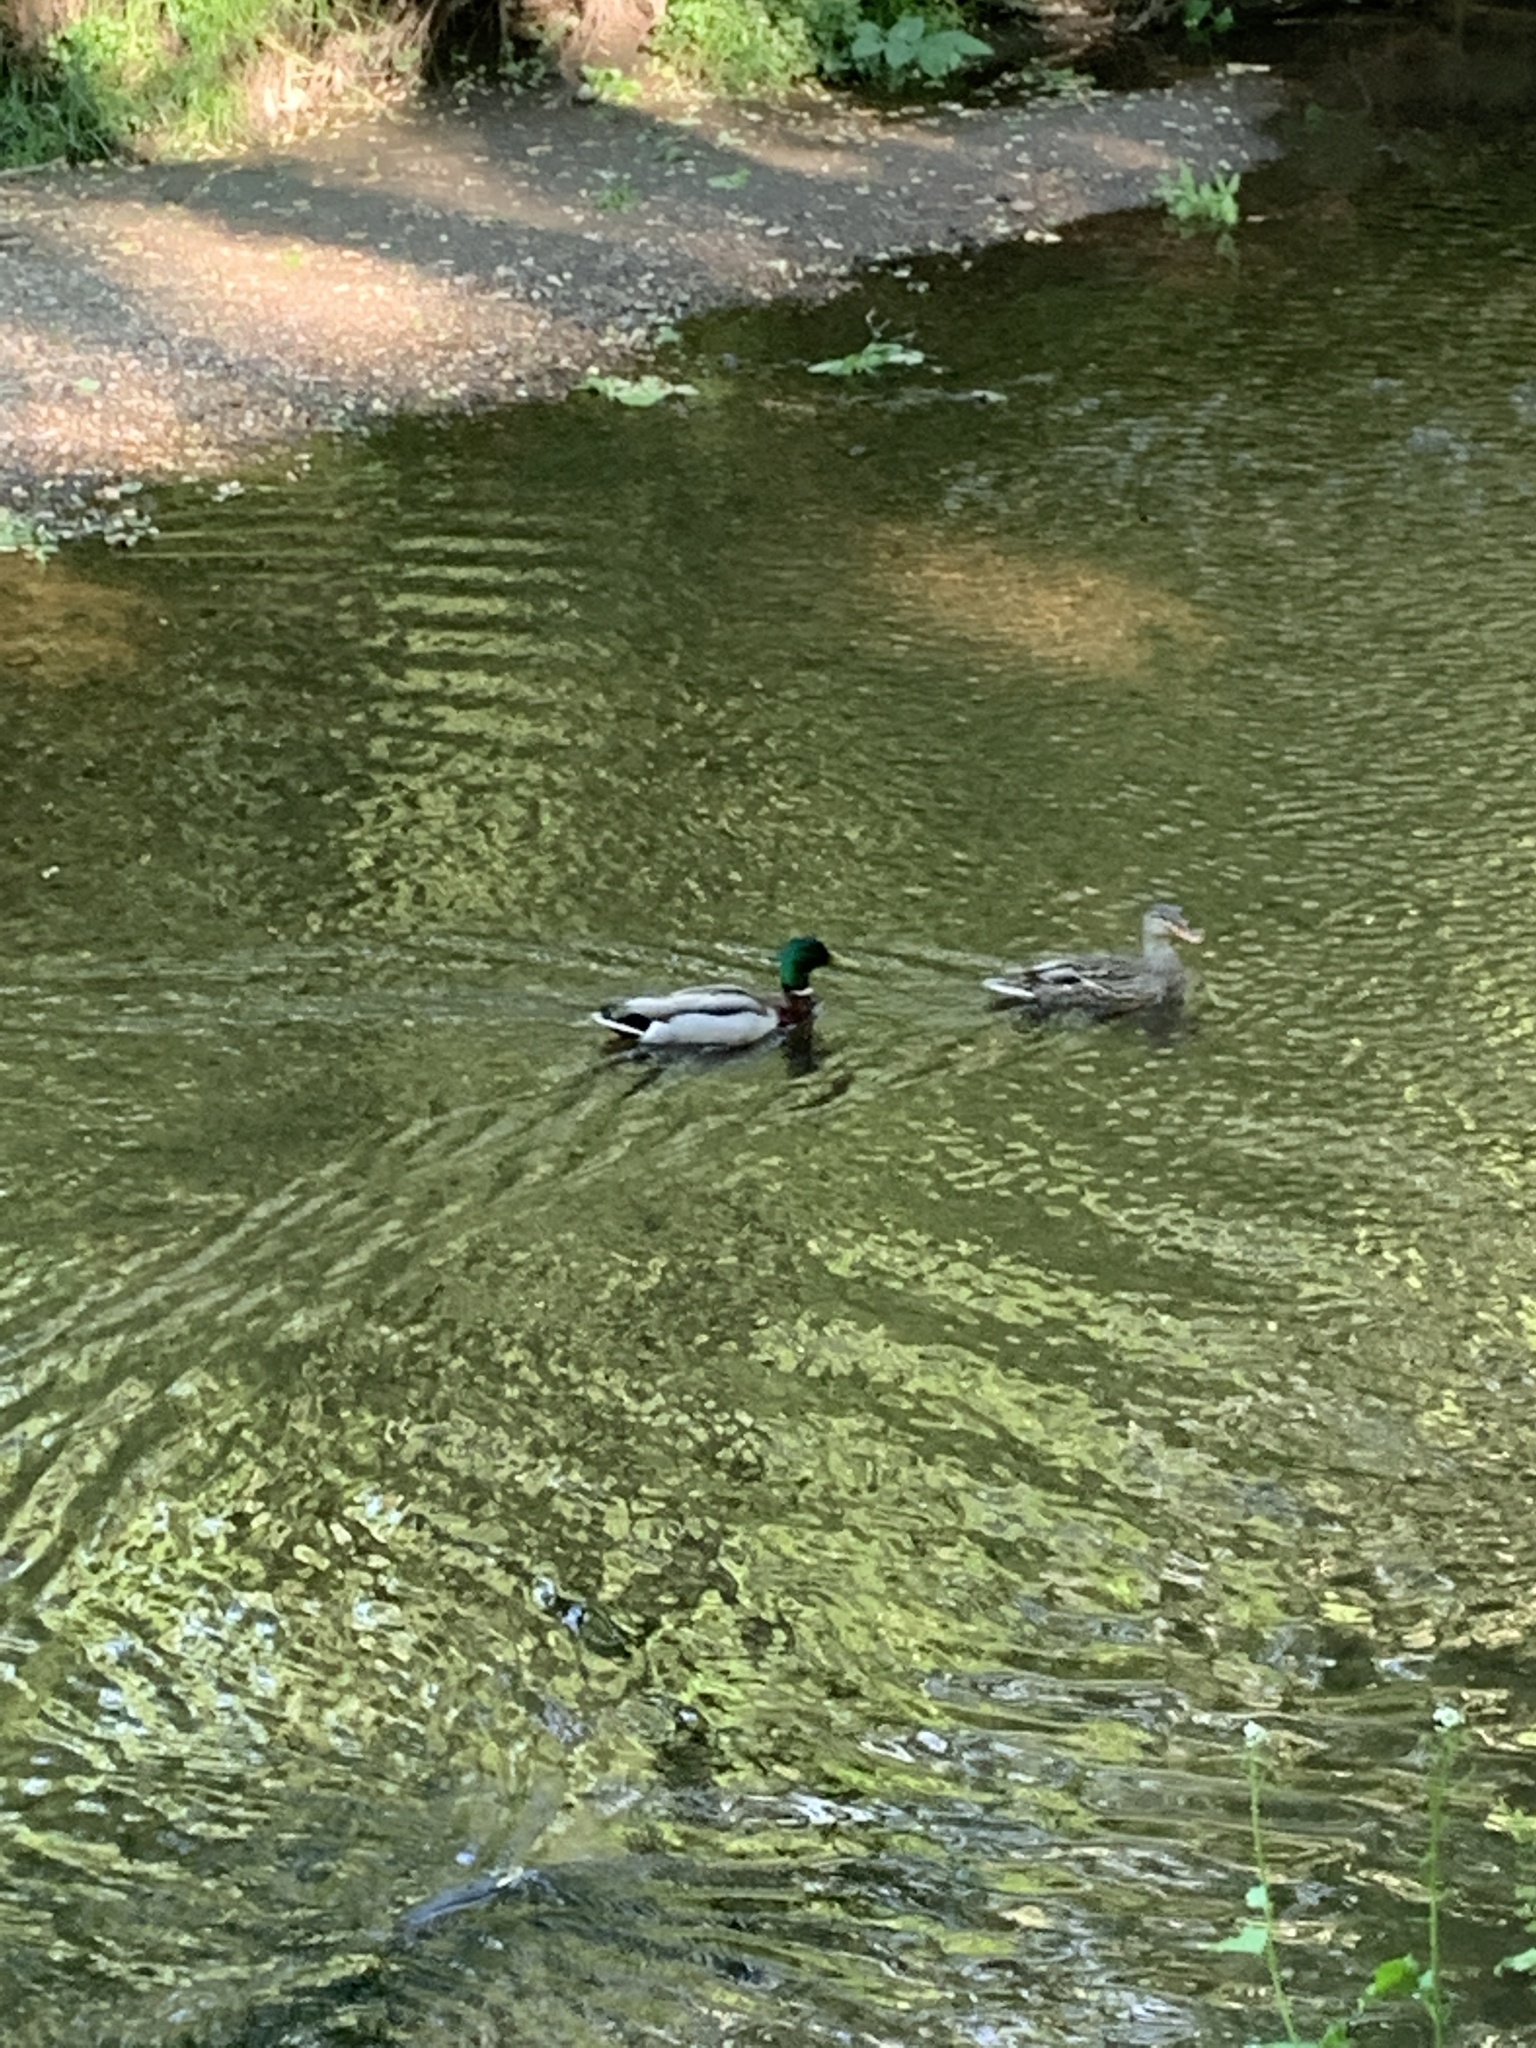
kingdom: Animalia
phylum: Chordata
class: Aves
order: Anseriformes
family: Anatidae
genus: Anas
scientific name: Anas platyrhynchos
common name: Mallard
